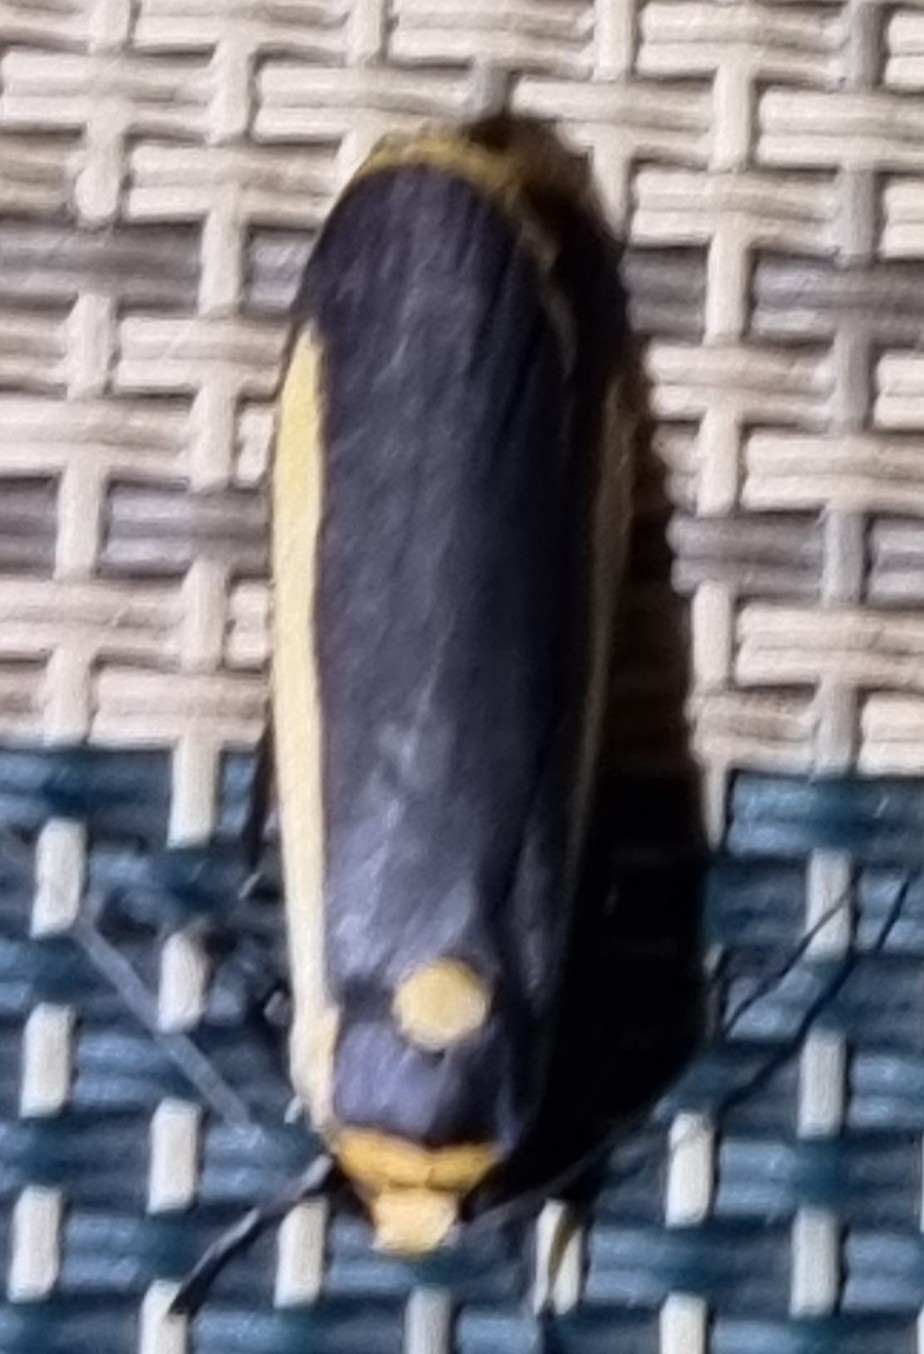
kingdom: Animalia
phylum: Arthropoda
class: Insecta
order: Lepidoptera
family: Erebidae
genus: Brunia
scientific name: Brunia replana
